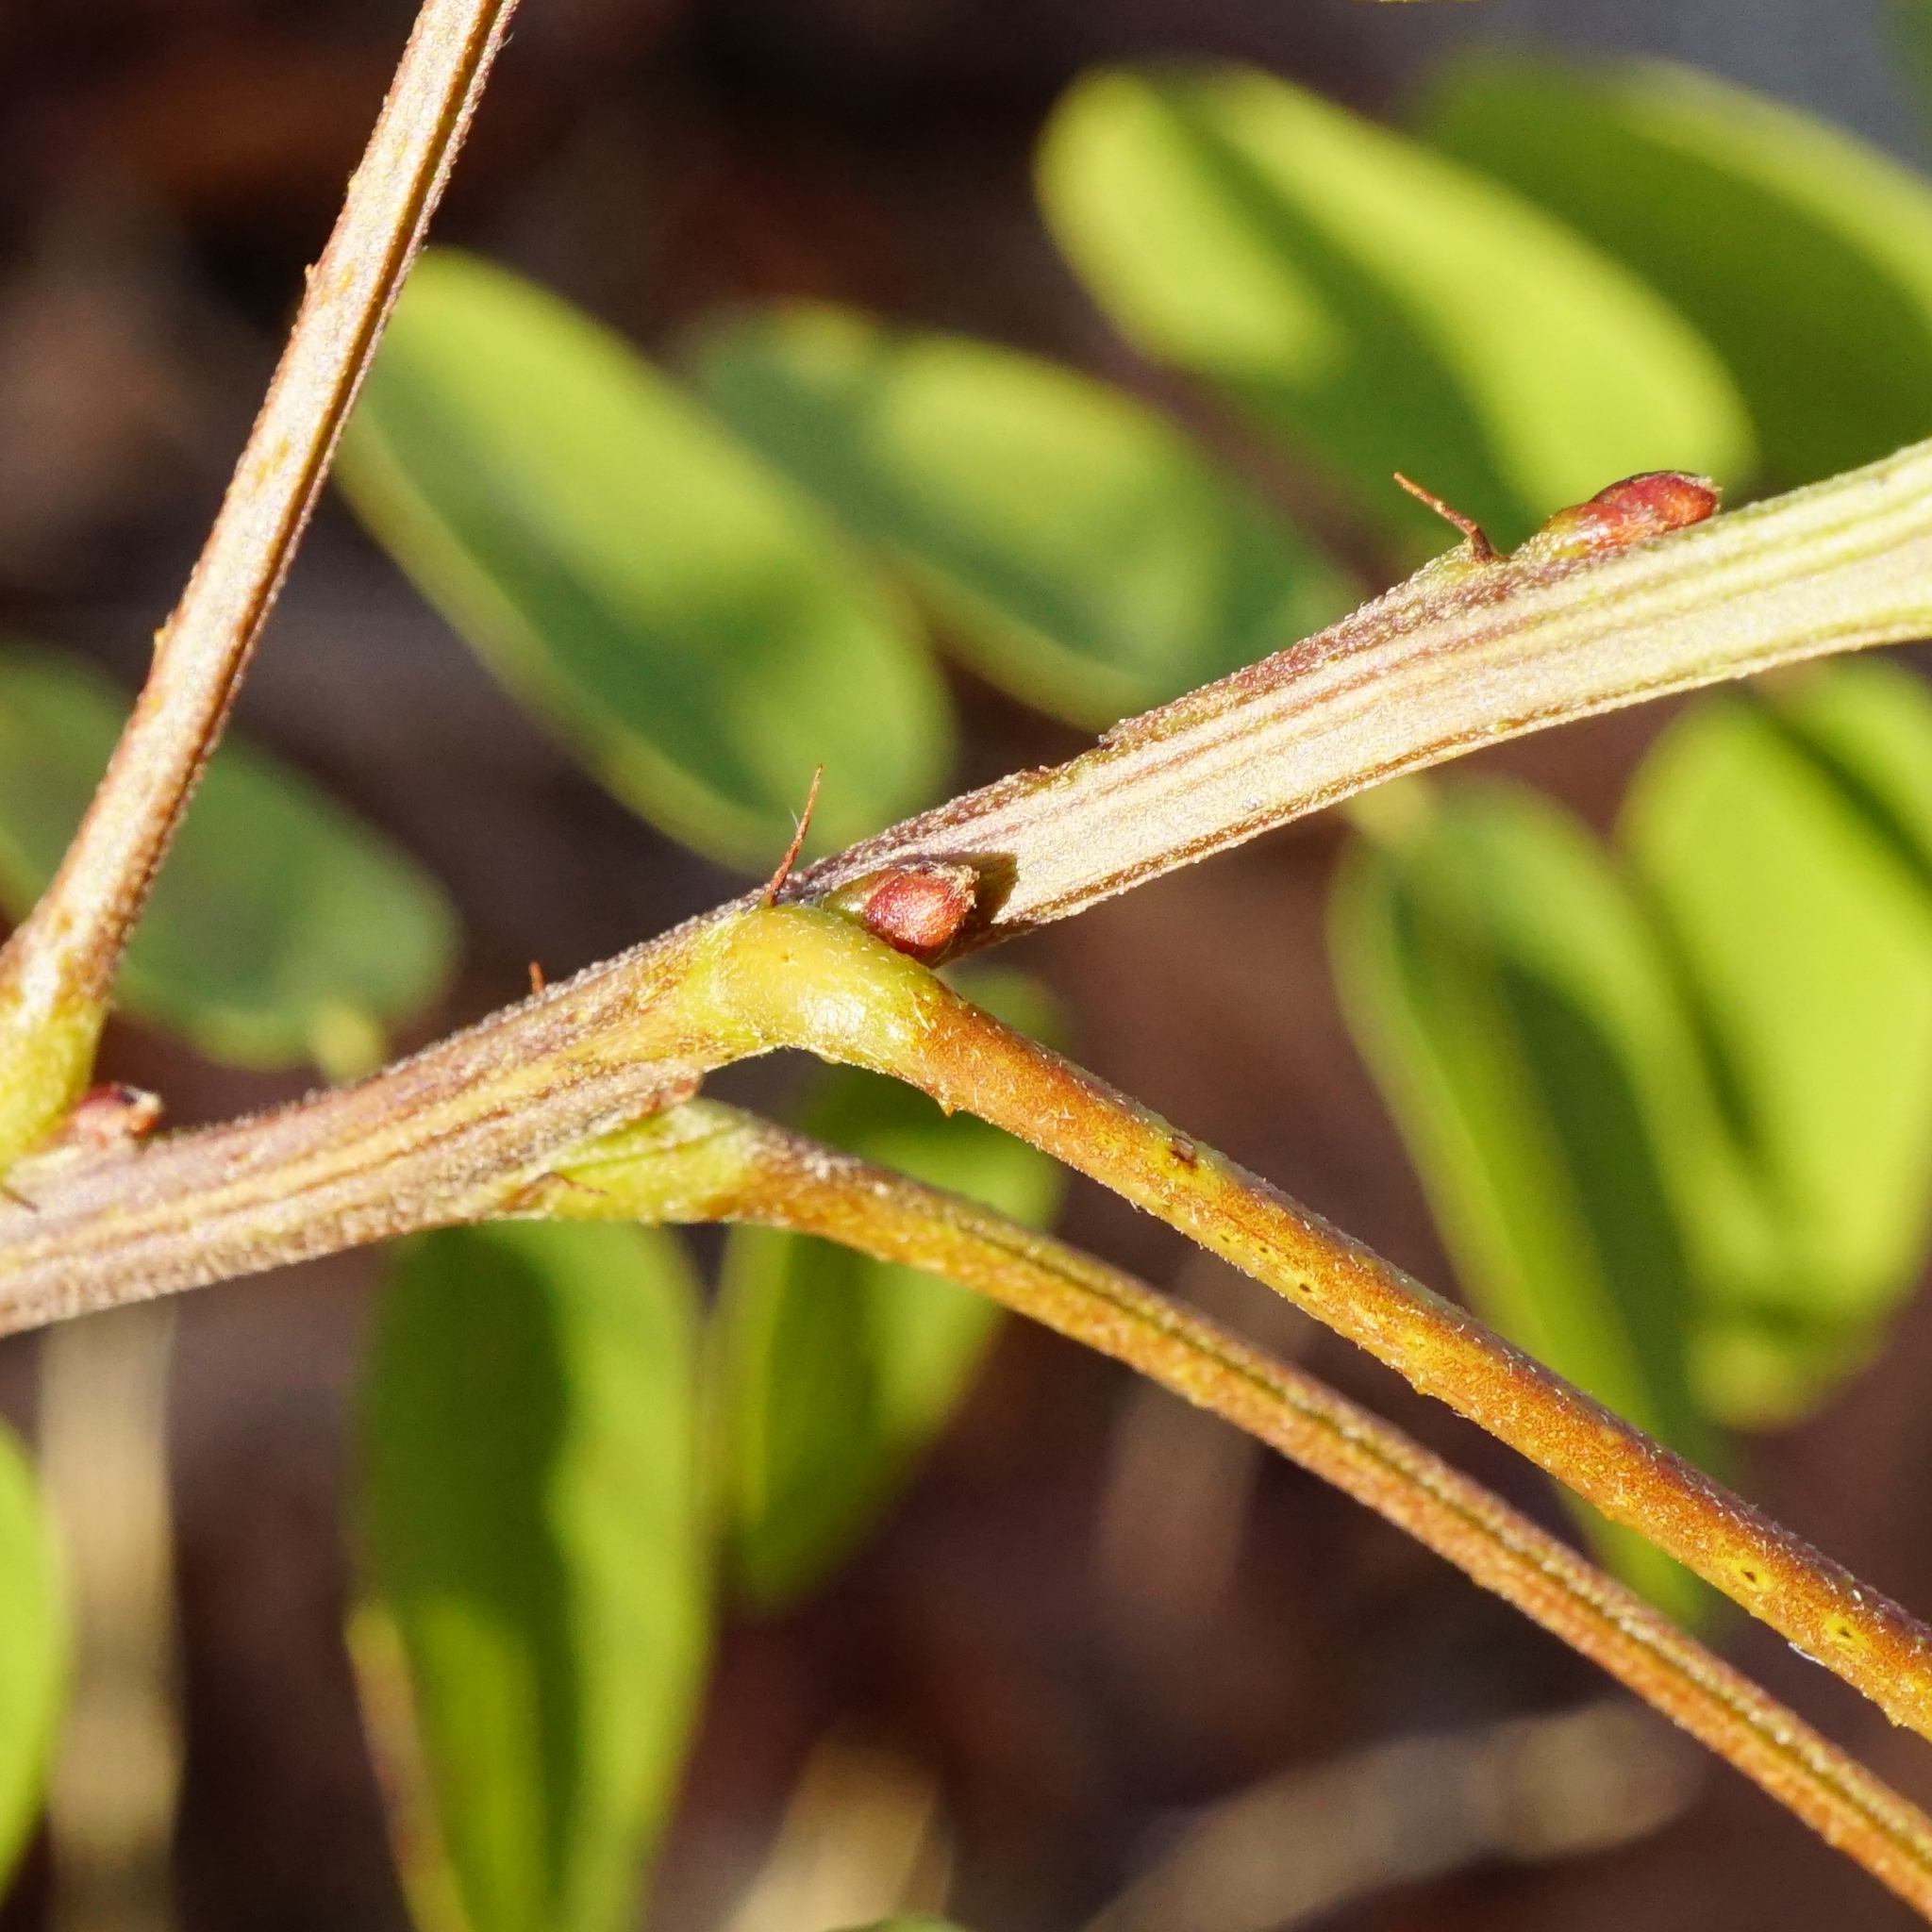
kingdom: Plantae
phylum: Tracheophyta
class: Magnoliopsida
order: Fabales
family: Fabaceae
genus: Amorpha
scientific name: Amorpha fruticosa
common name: False indigo
